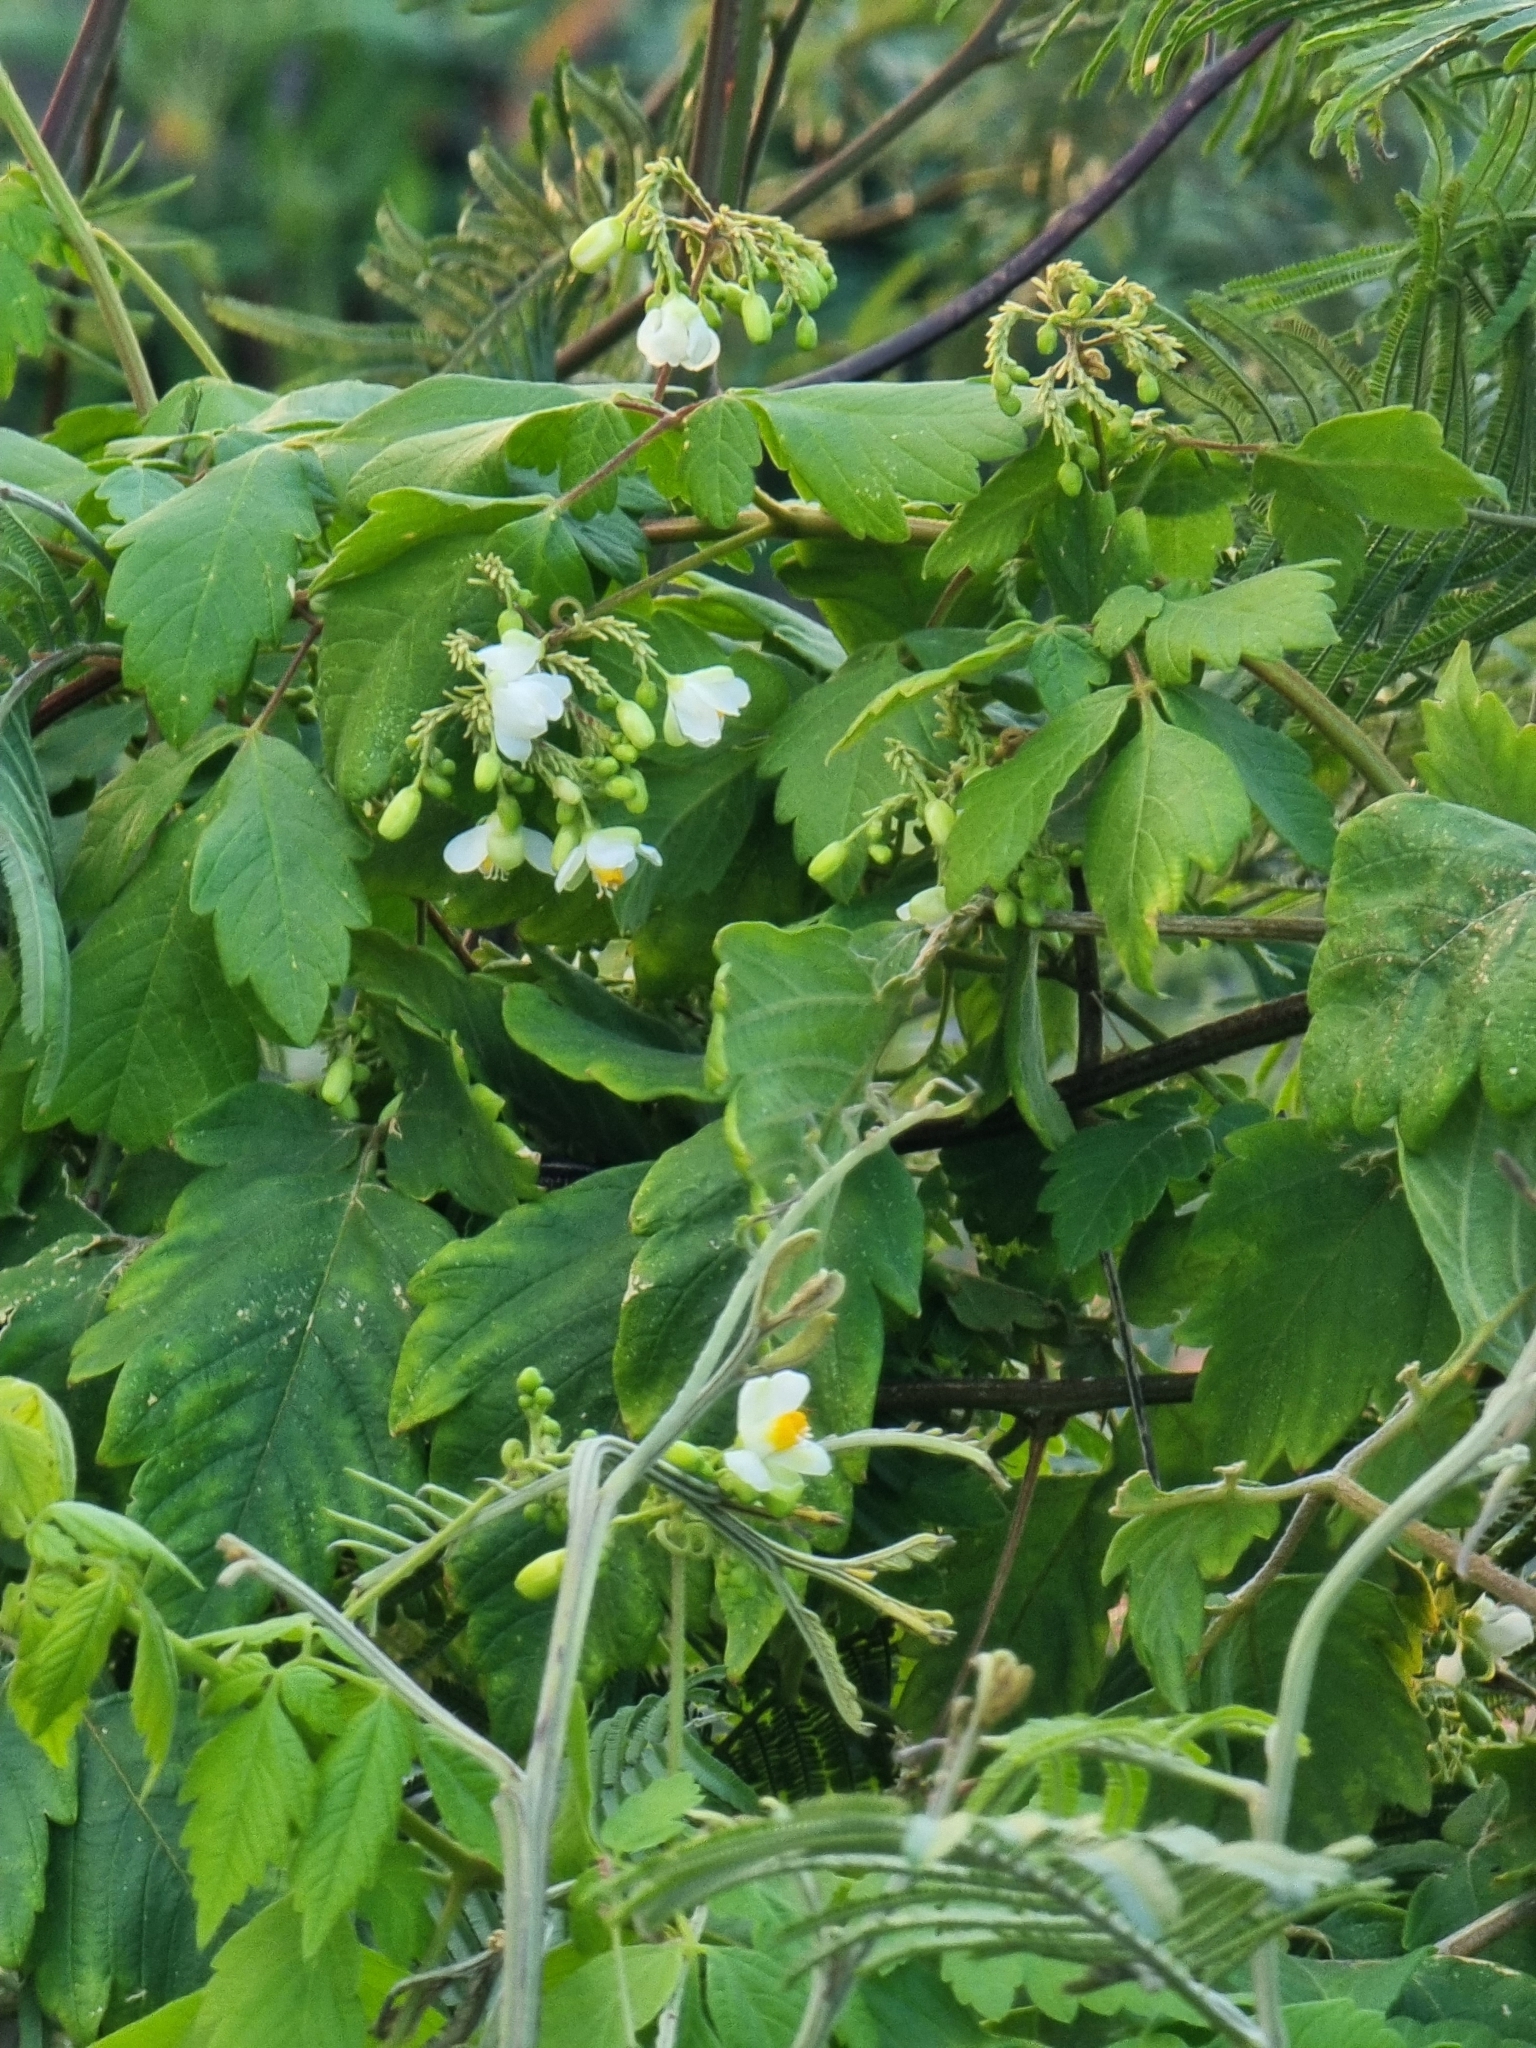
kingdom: Plantae
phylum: Tracheophyta
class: Magnoliopsida
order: Sapindales
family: Sapindaceae
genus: Cardiospermum
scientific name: Cardiospermum grandiflorum
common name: Balloon vine
